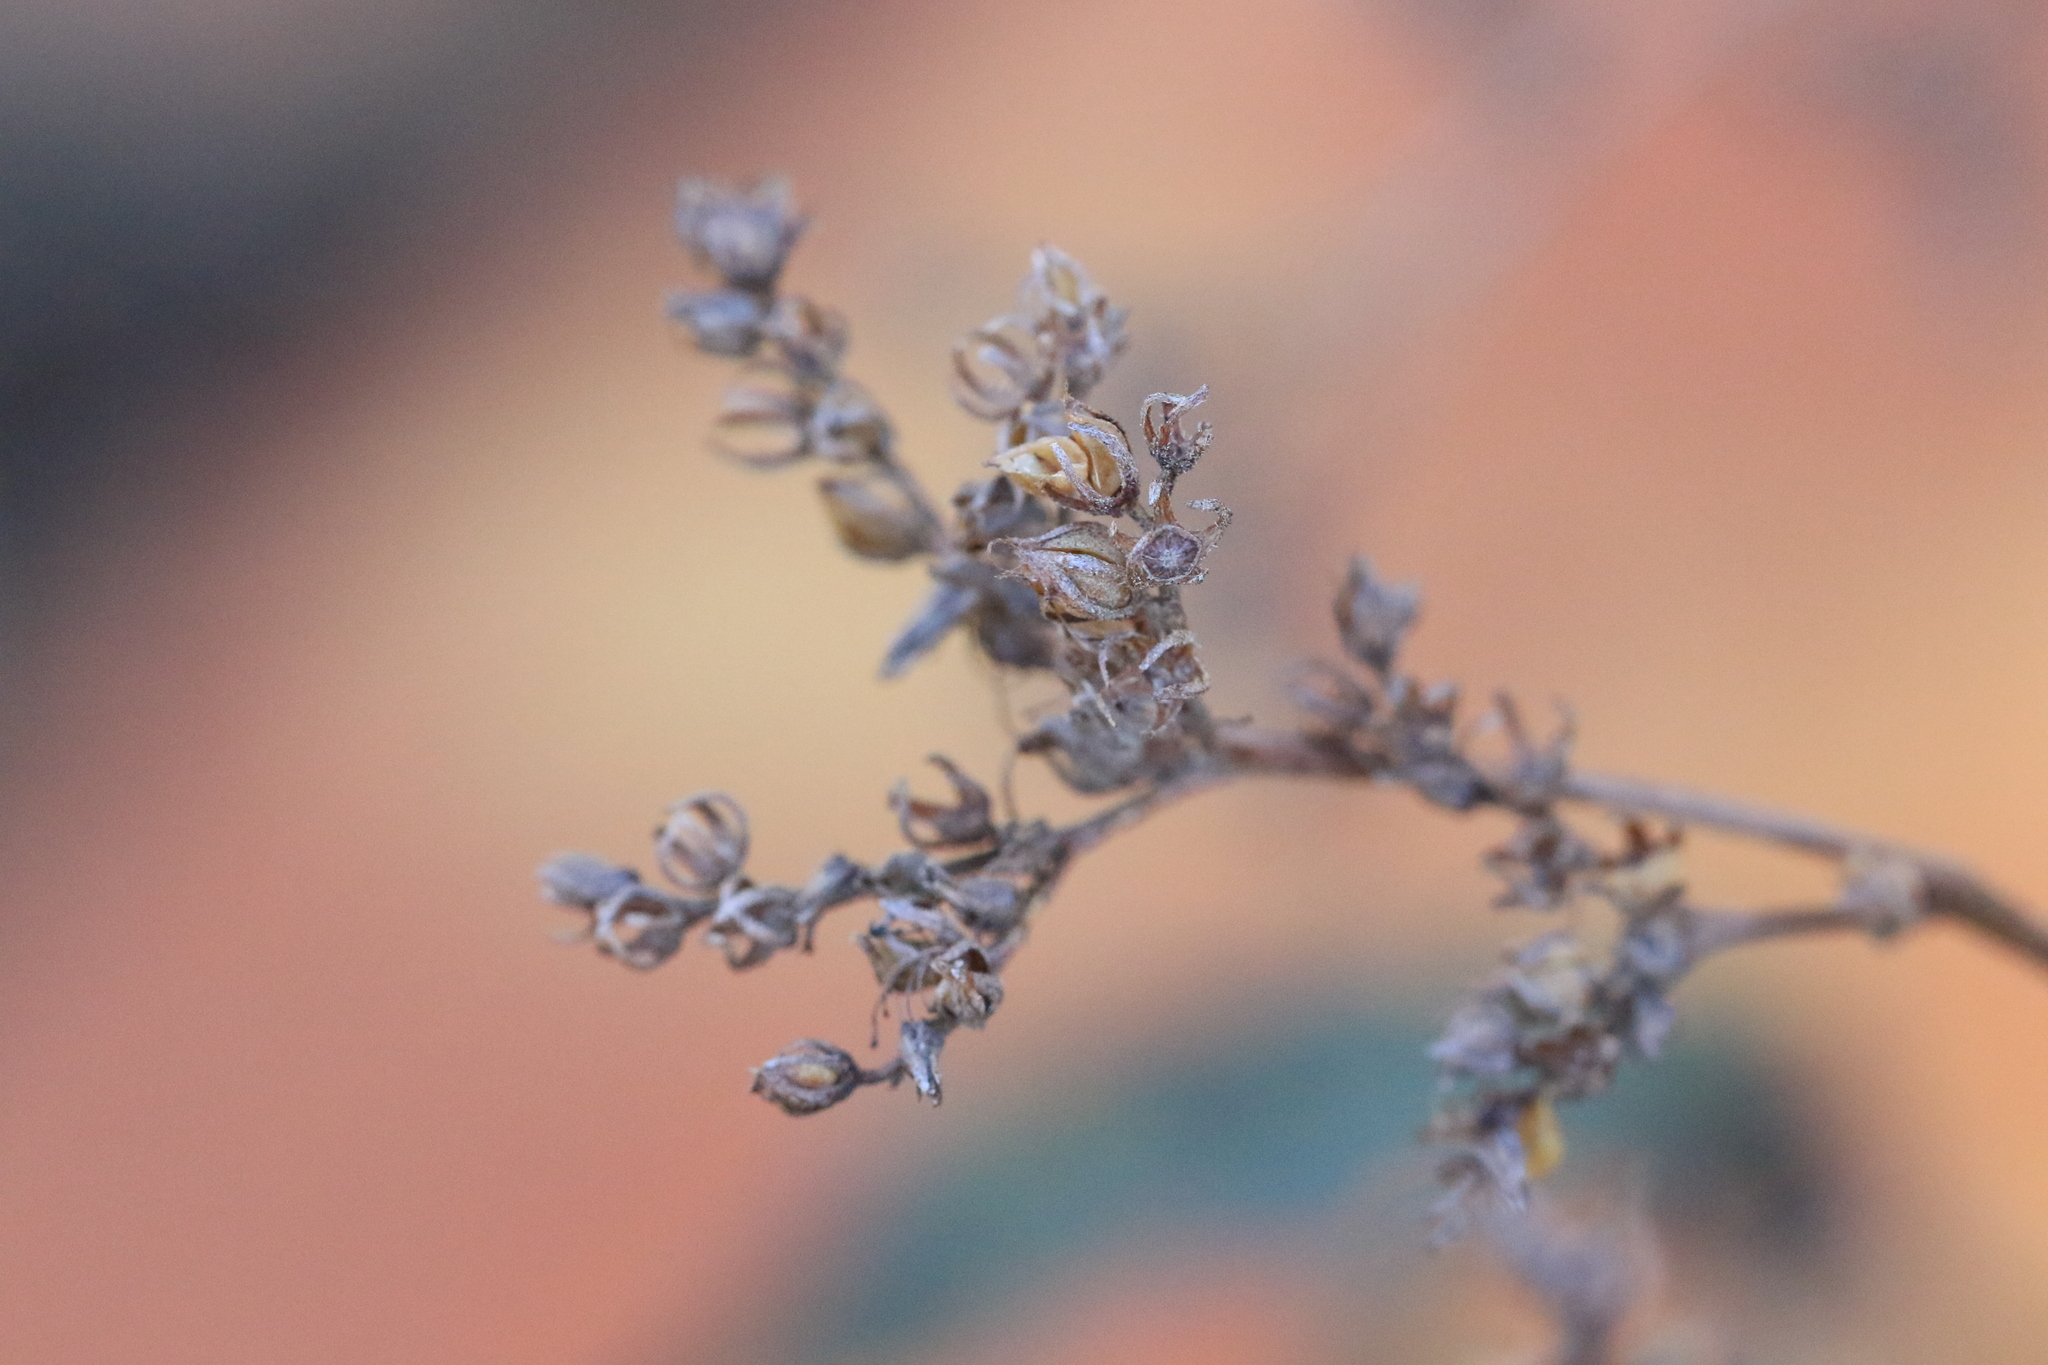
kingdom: Plantae
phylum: Tracheophyta
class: Magnoliopsida
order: Boraginales
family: Namaceae
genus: Eriodictyon
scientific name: Eriodictyon californicum
